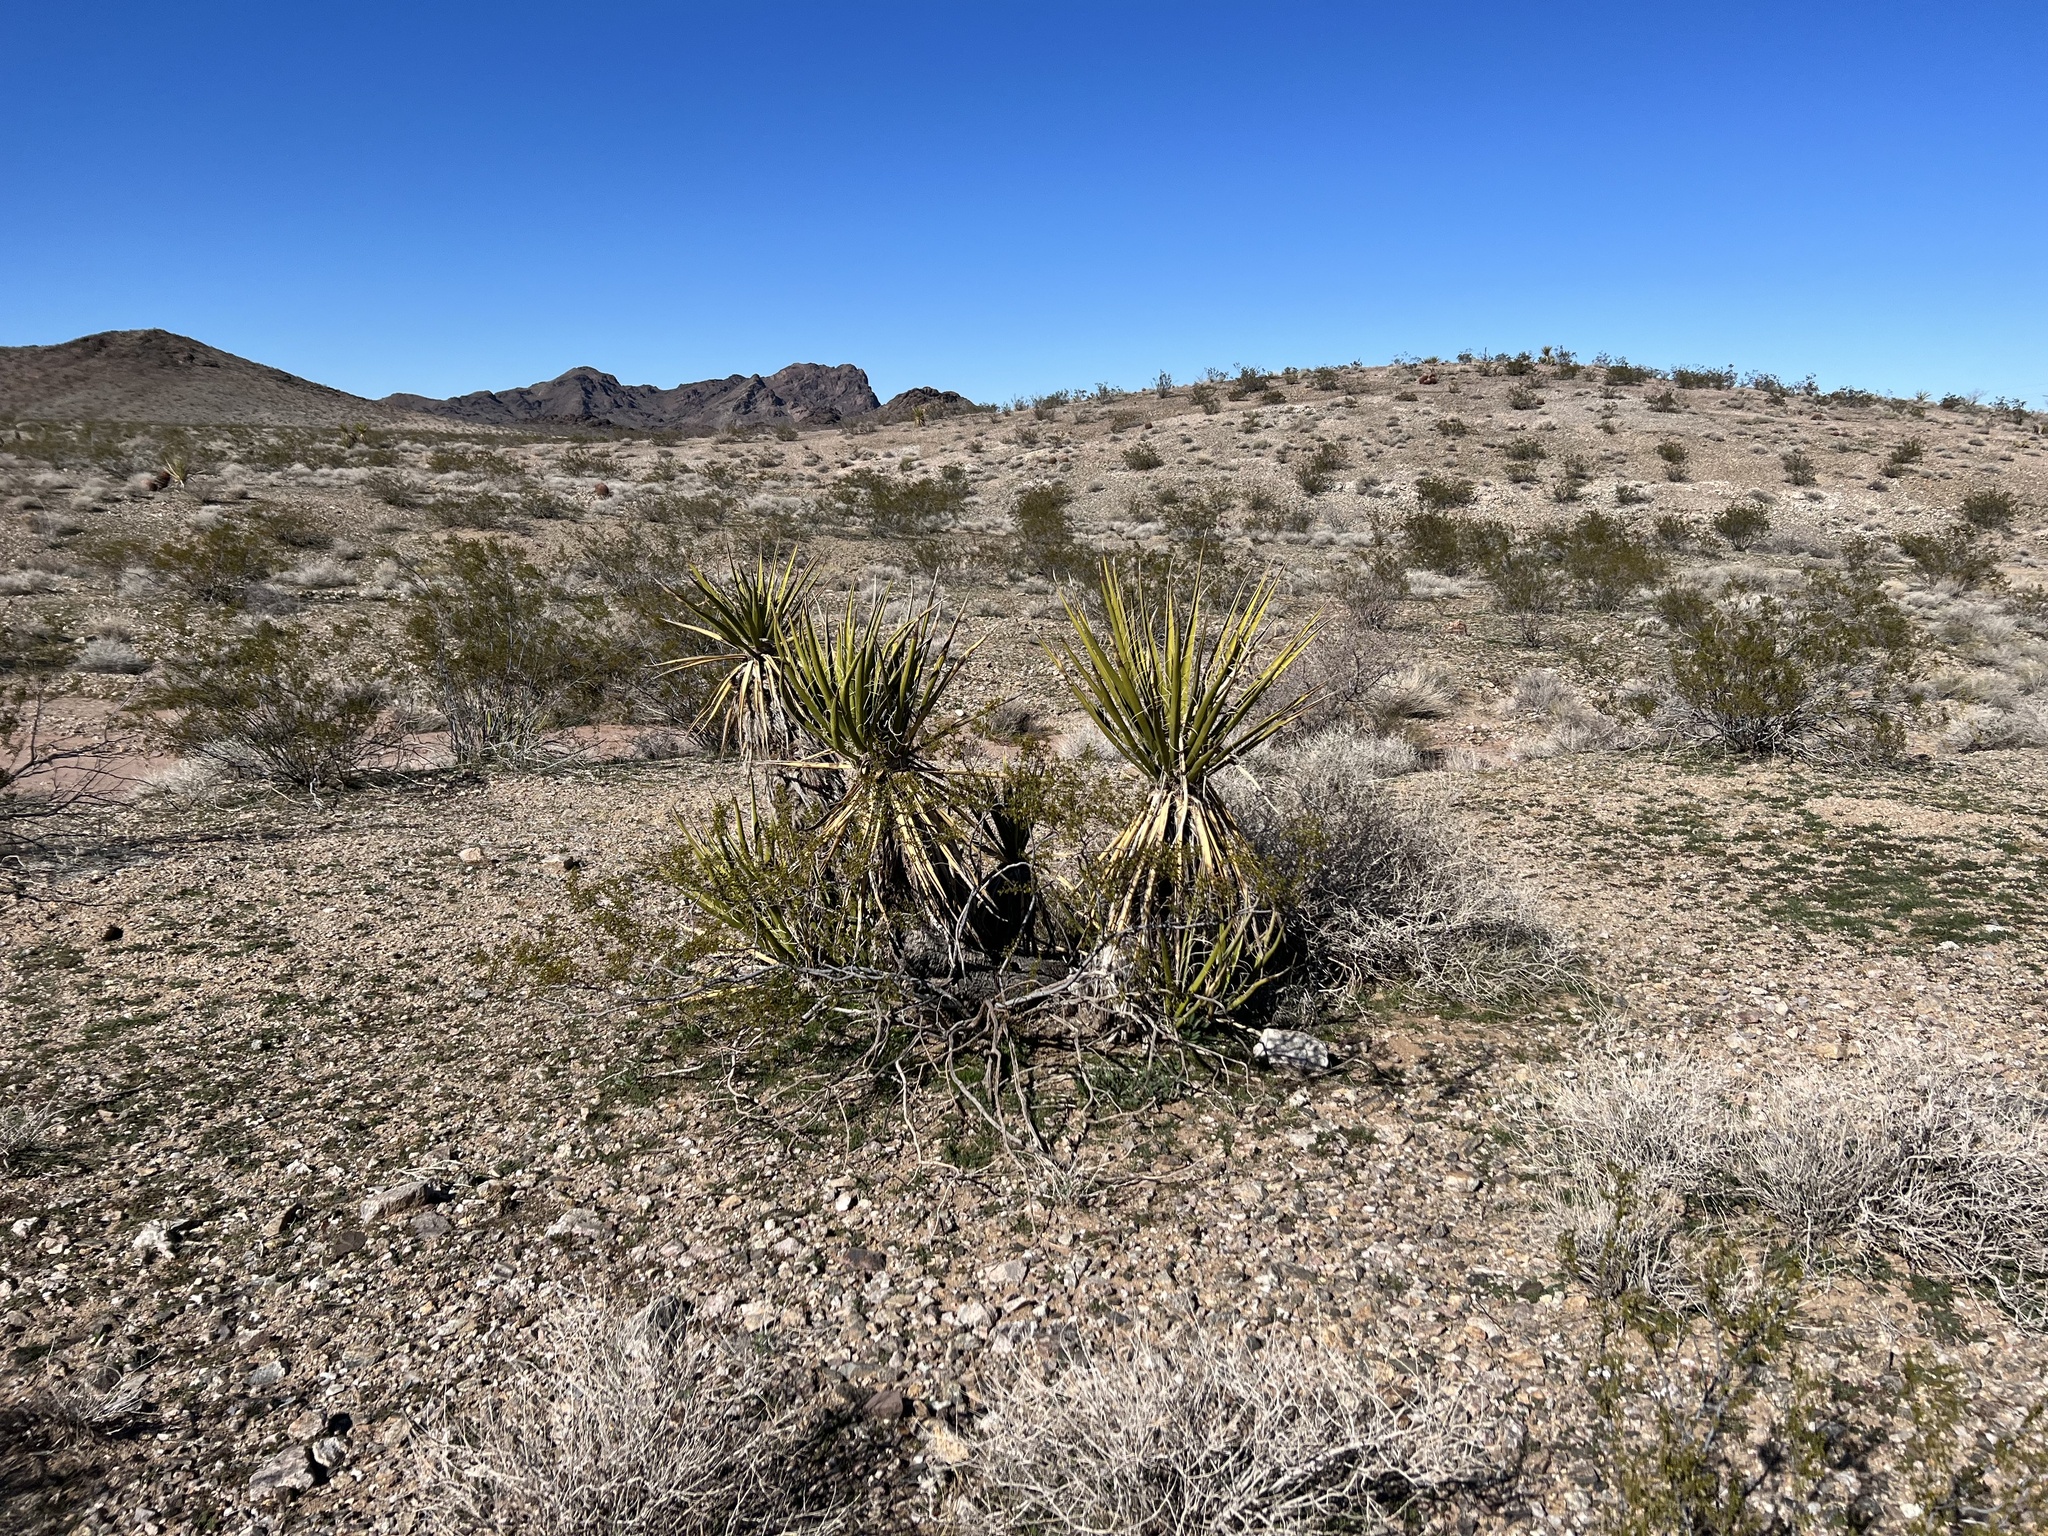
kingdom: Plantae
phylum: Tracheophyta
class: Liliopsida
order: Asparagales
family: Asparagaceae
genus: Yucca
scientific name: Yucca schidigera
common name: Mojave yucca
